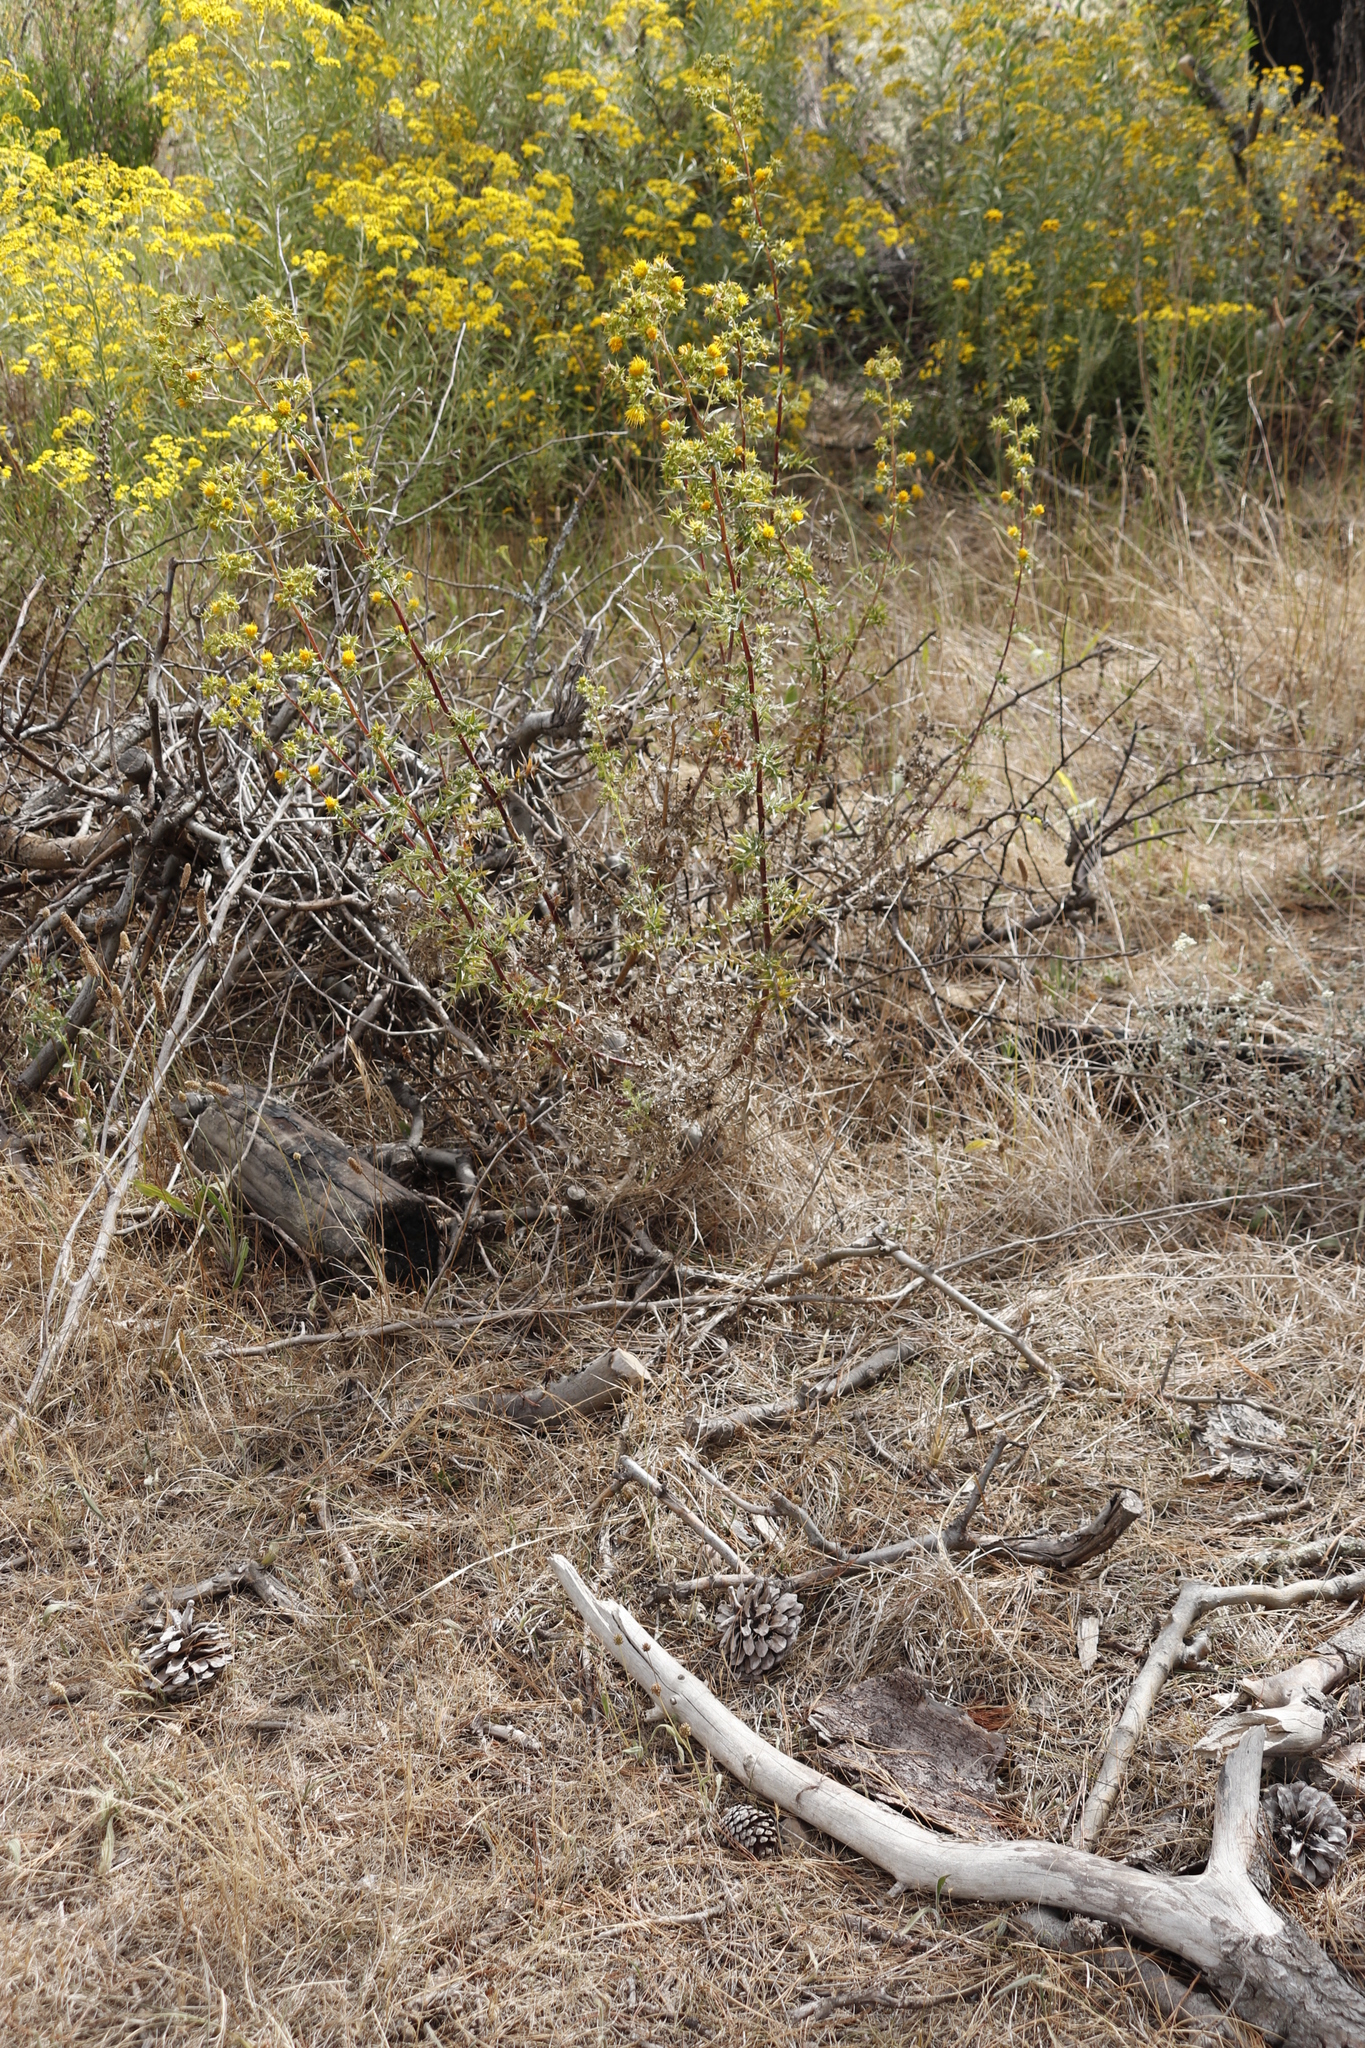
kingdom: Plantae
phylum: Tracheophyta
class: Magnoliopsida
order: Asterales
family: Asteraceae
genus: Berkheya
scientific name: Berkheya rigida
